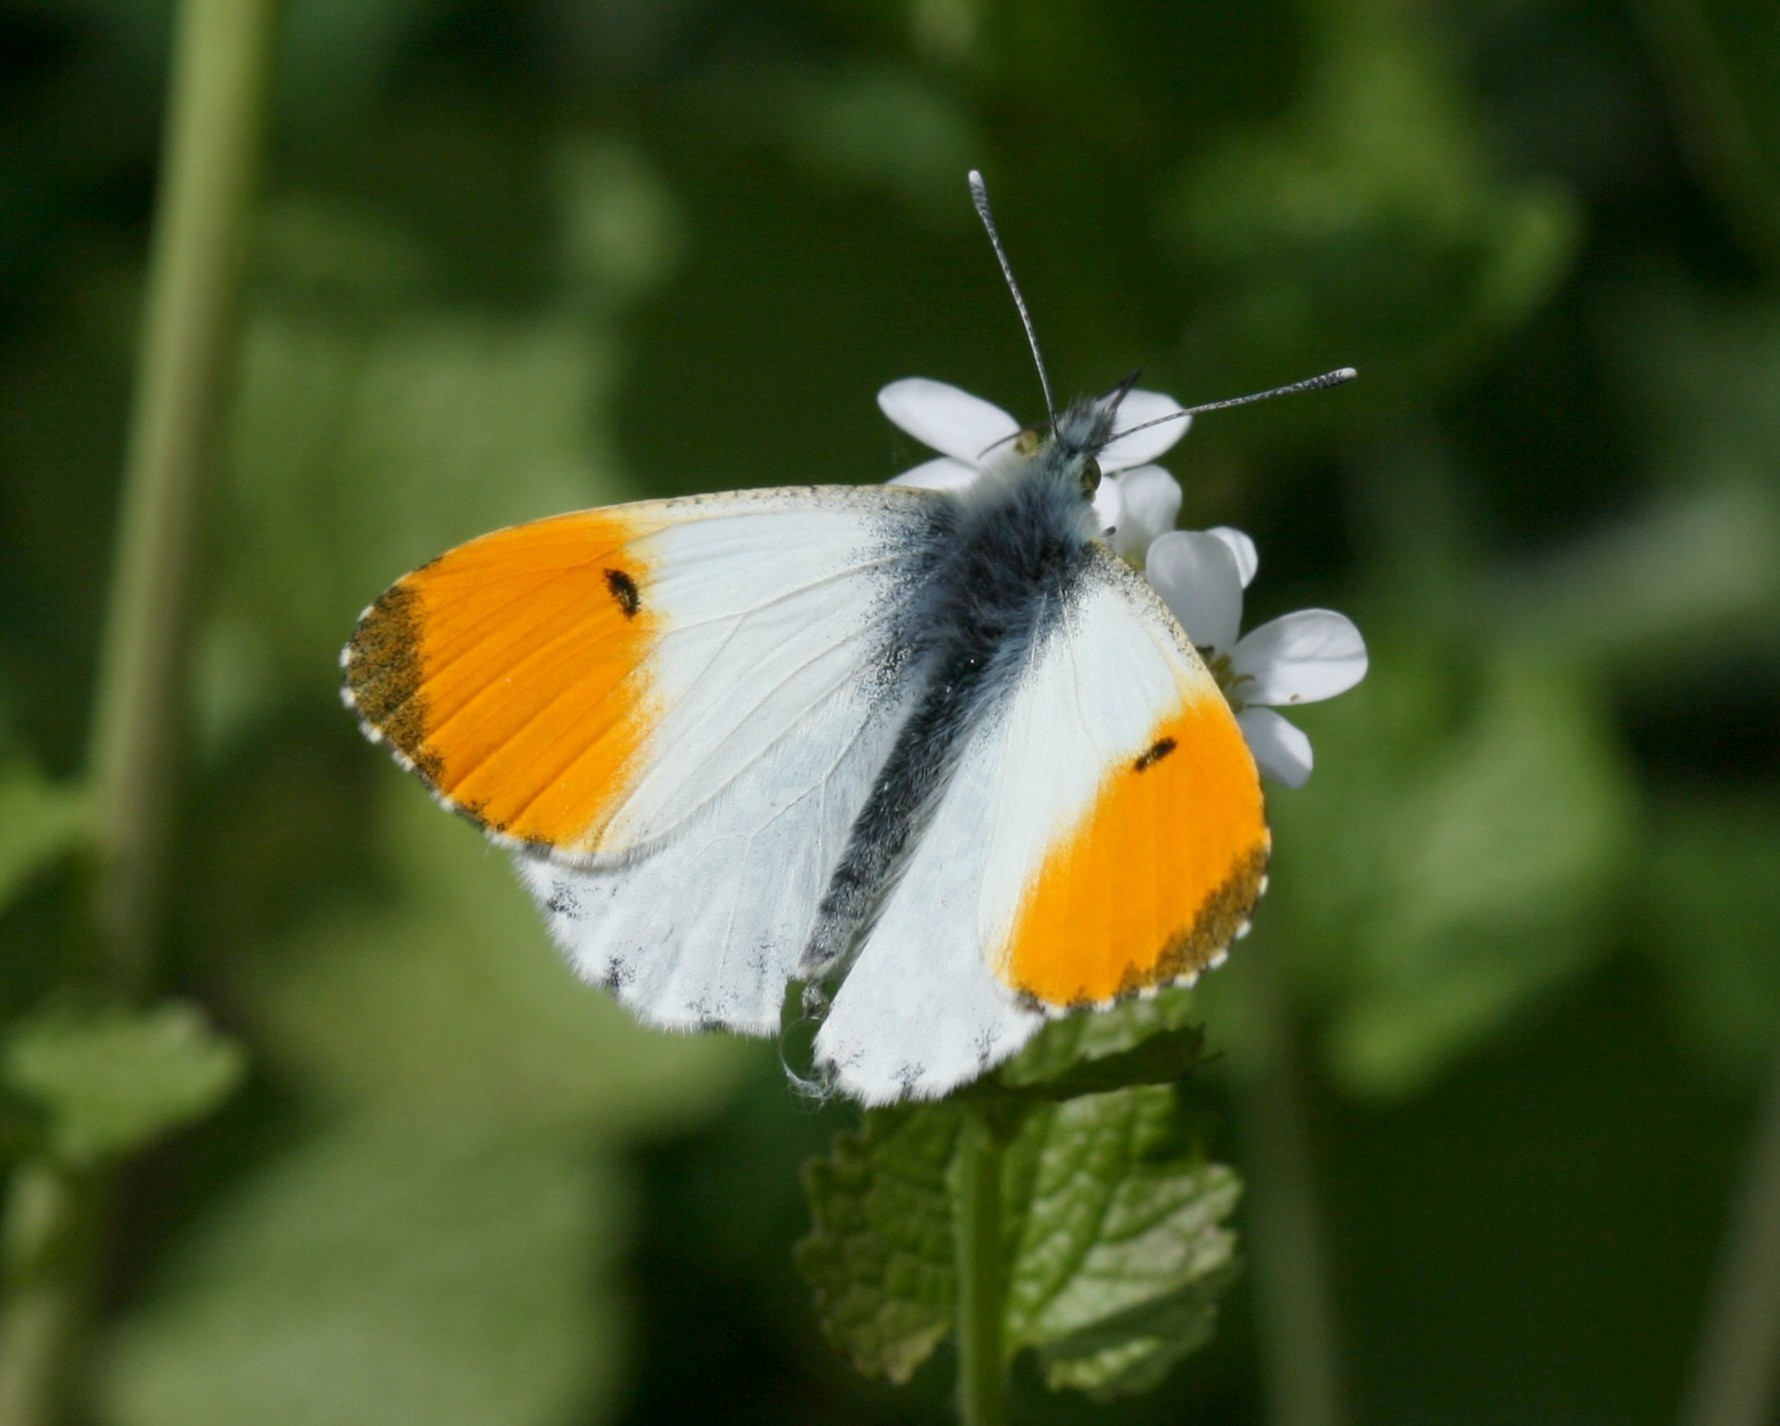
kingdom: Animalia
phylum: Arthropoda
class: Insecta
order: Lepidoptera
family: Pieridae
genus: Anthocharis
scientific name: Anthocharis cardamines
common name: Orange-tip
